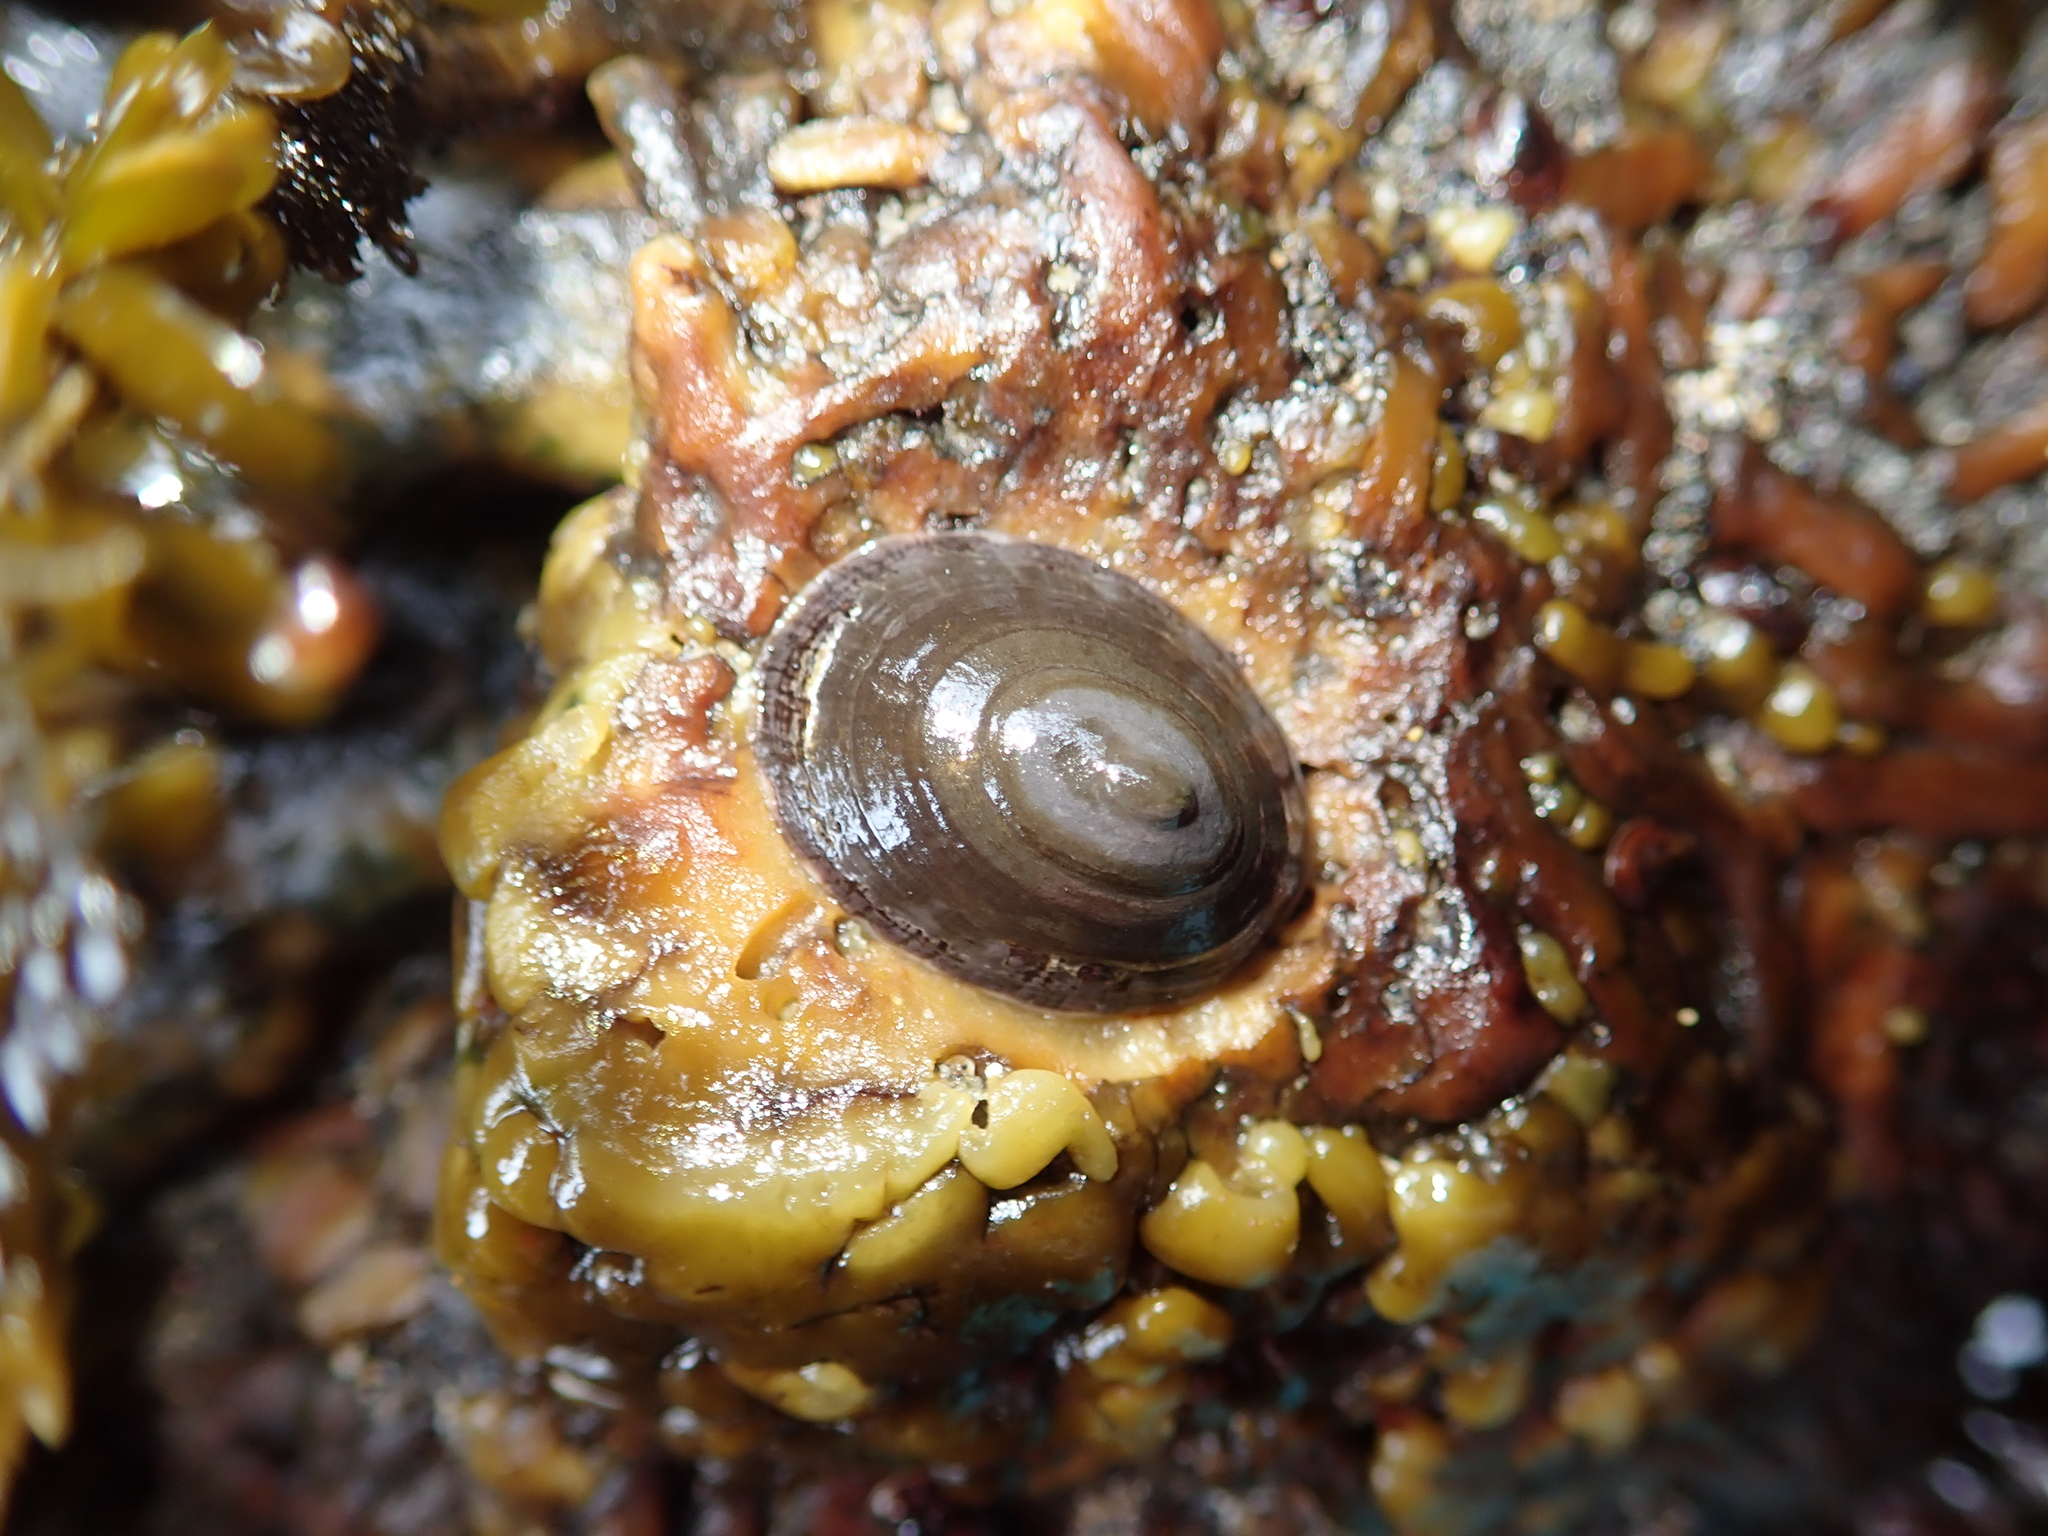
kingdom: Animalia
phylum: Mollusca
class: Gastropoda
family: Lottiidae
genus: Discurria
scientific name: Discurria insessa
